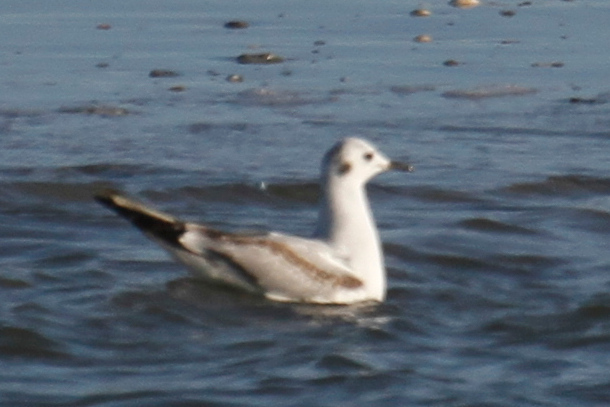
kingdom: Animalia
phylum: Chordata
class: Aves
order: Charadriiformes
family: Laridae
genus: Chroicocephalus
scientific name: Chroicocephalus philadelphia
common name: Bonaparte's gull
